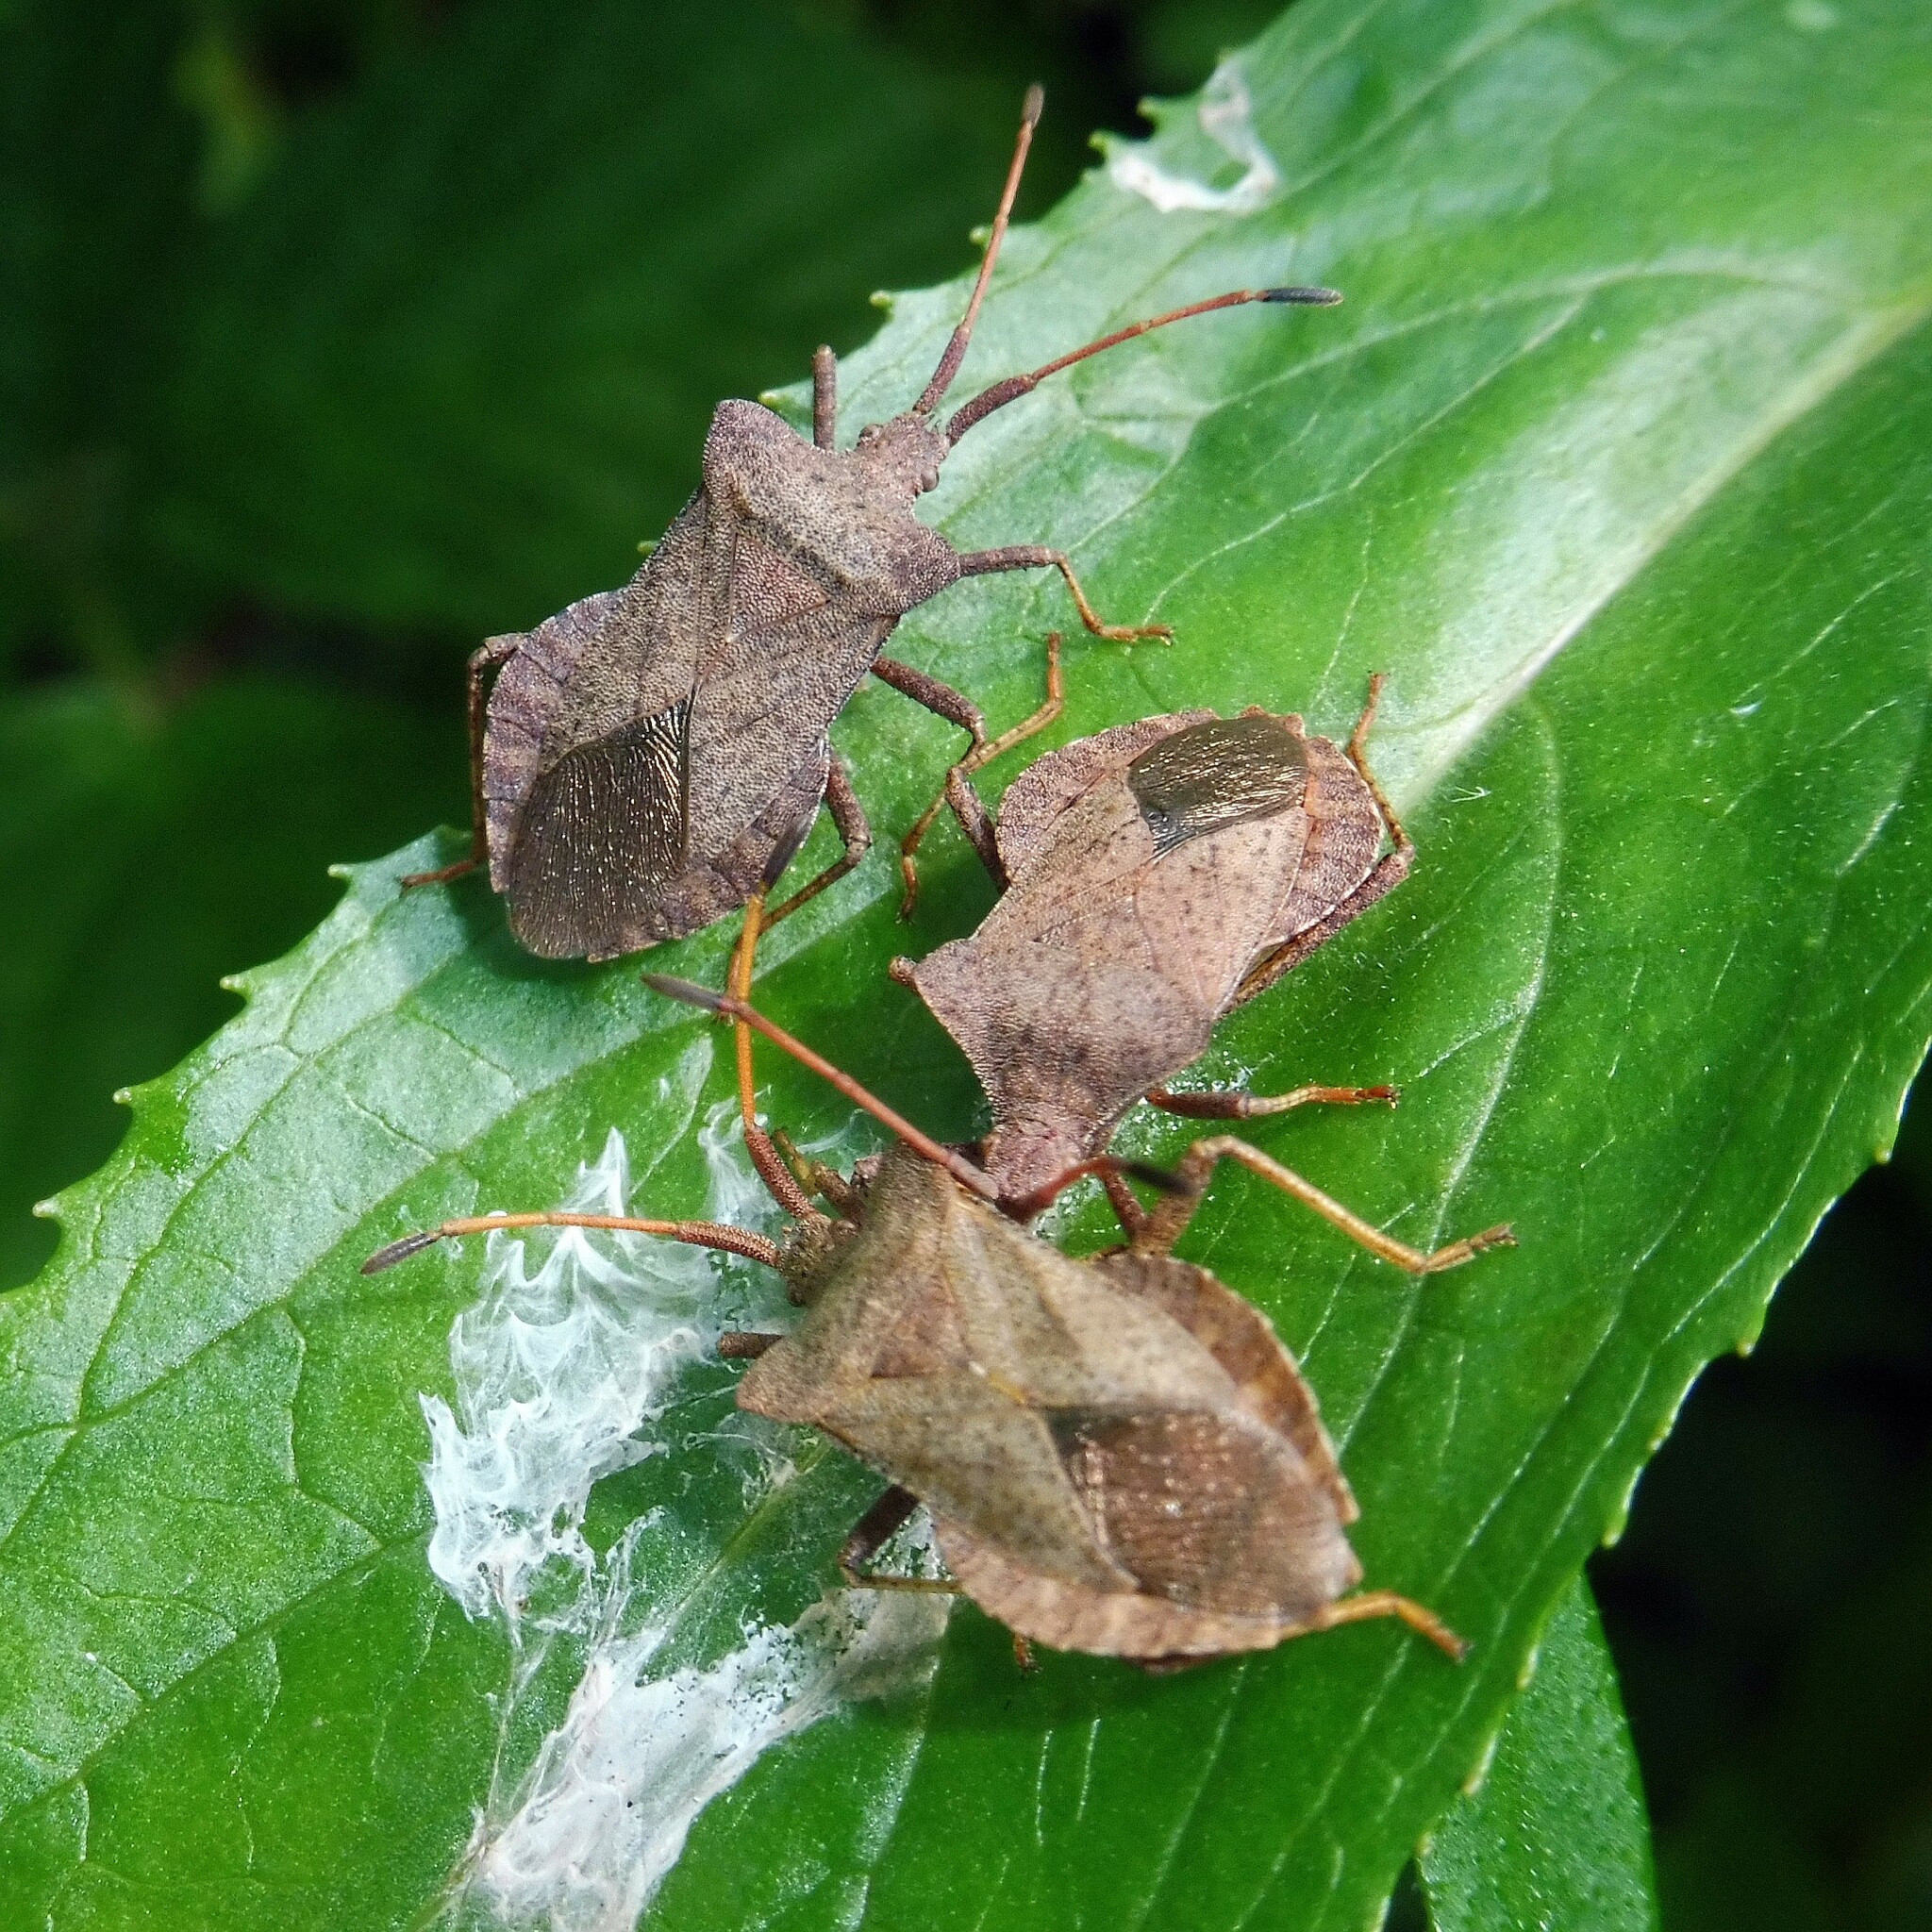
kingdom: Animalia
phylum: Arthropoda
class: Insecta
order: Hemiptera
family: Coreidae
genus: Coreus
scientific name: Coreus marginatus
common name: Dock bug
